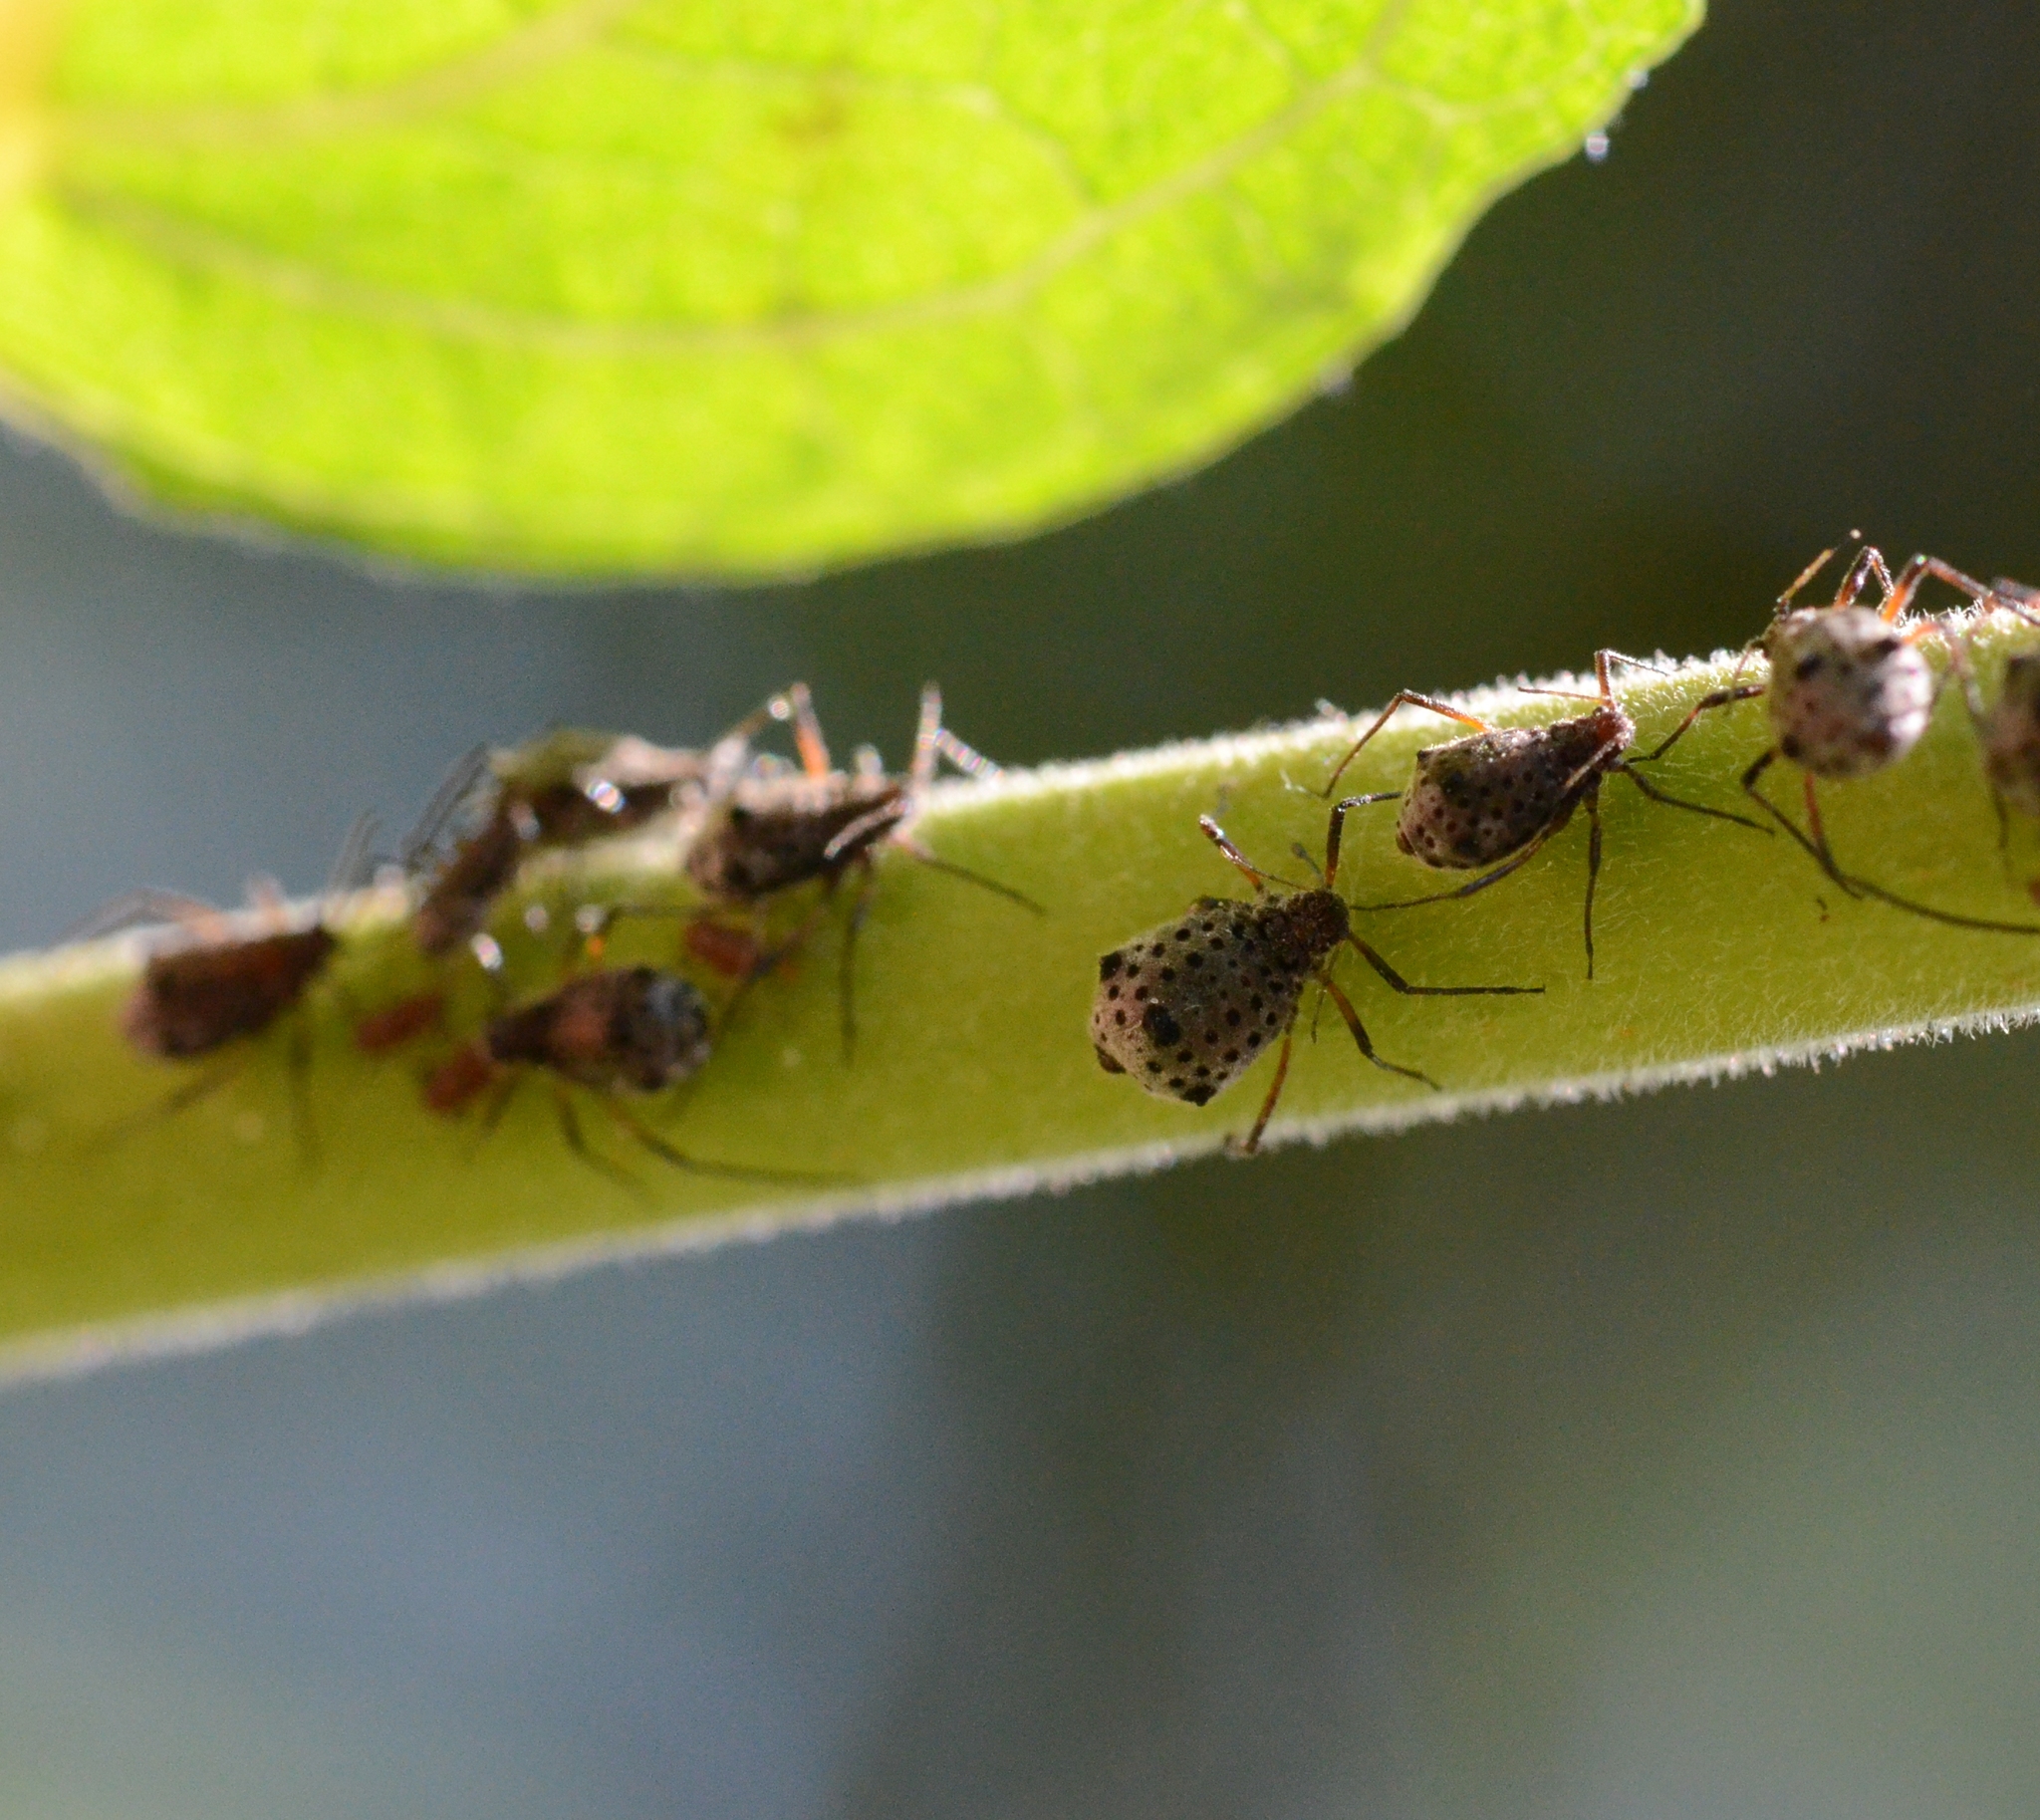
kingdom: Animalia
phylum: Arthropoda
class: Insecta
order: Hemiptera
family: Aphididae
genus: Tuberolachnus
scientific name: Tuberolachnus salignus
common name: Giant willow aphid
